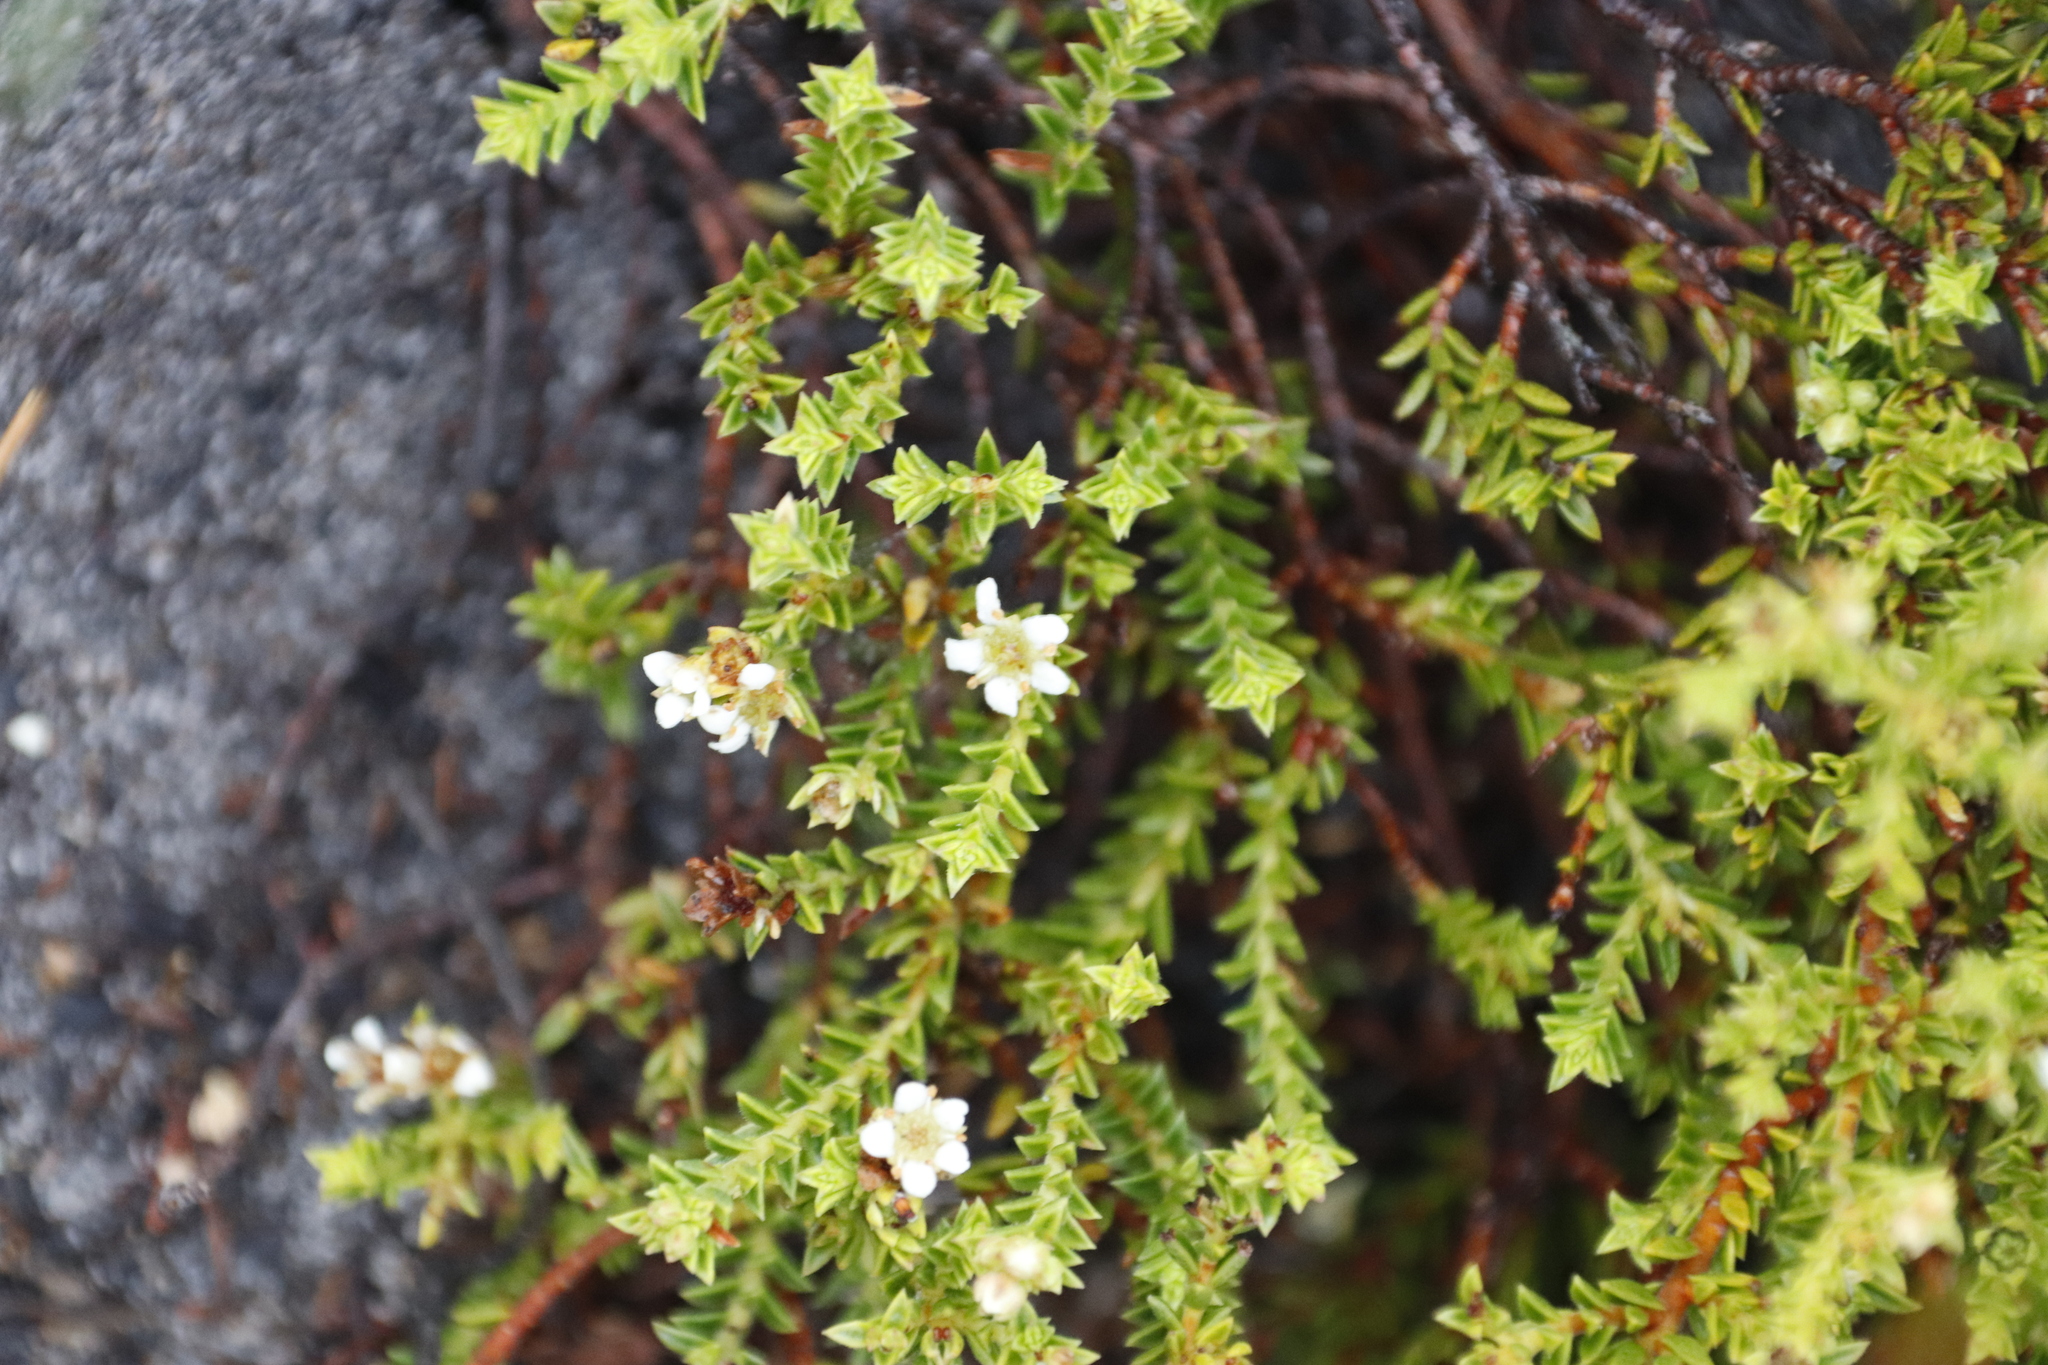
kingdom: Plantae
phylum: Tracheophyta
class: Magnoliopsida
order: Sapindales
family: Rutaceae
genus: Diosma
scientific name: Diosma oppositifolia
